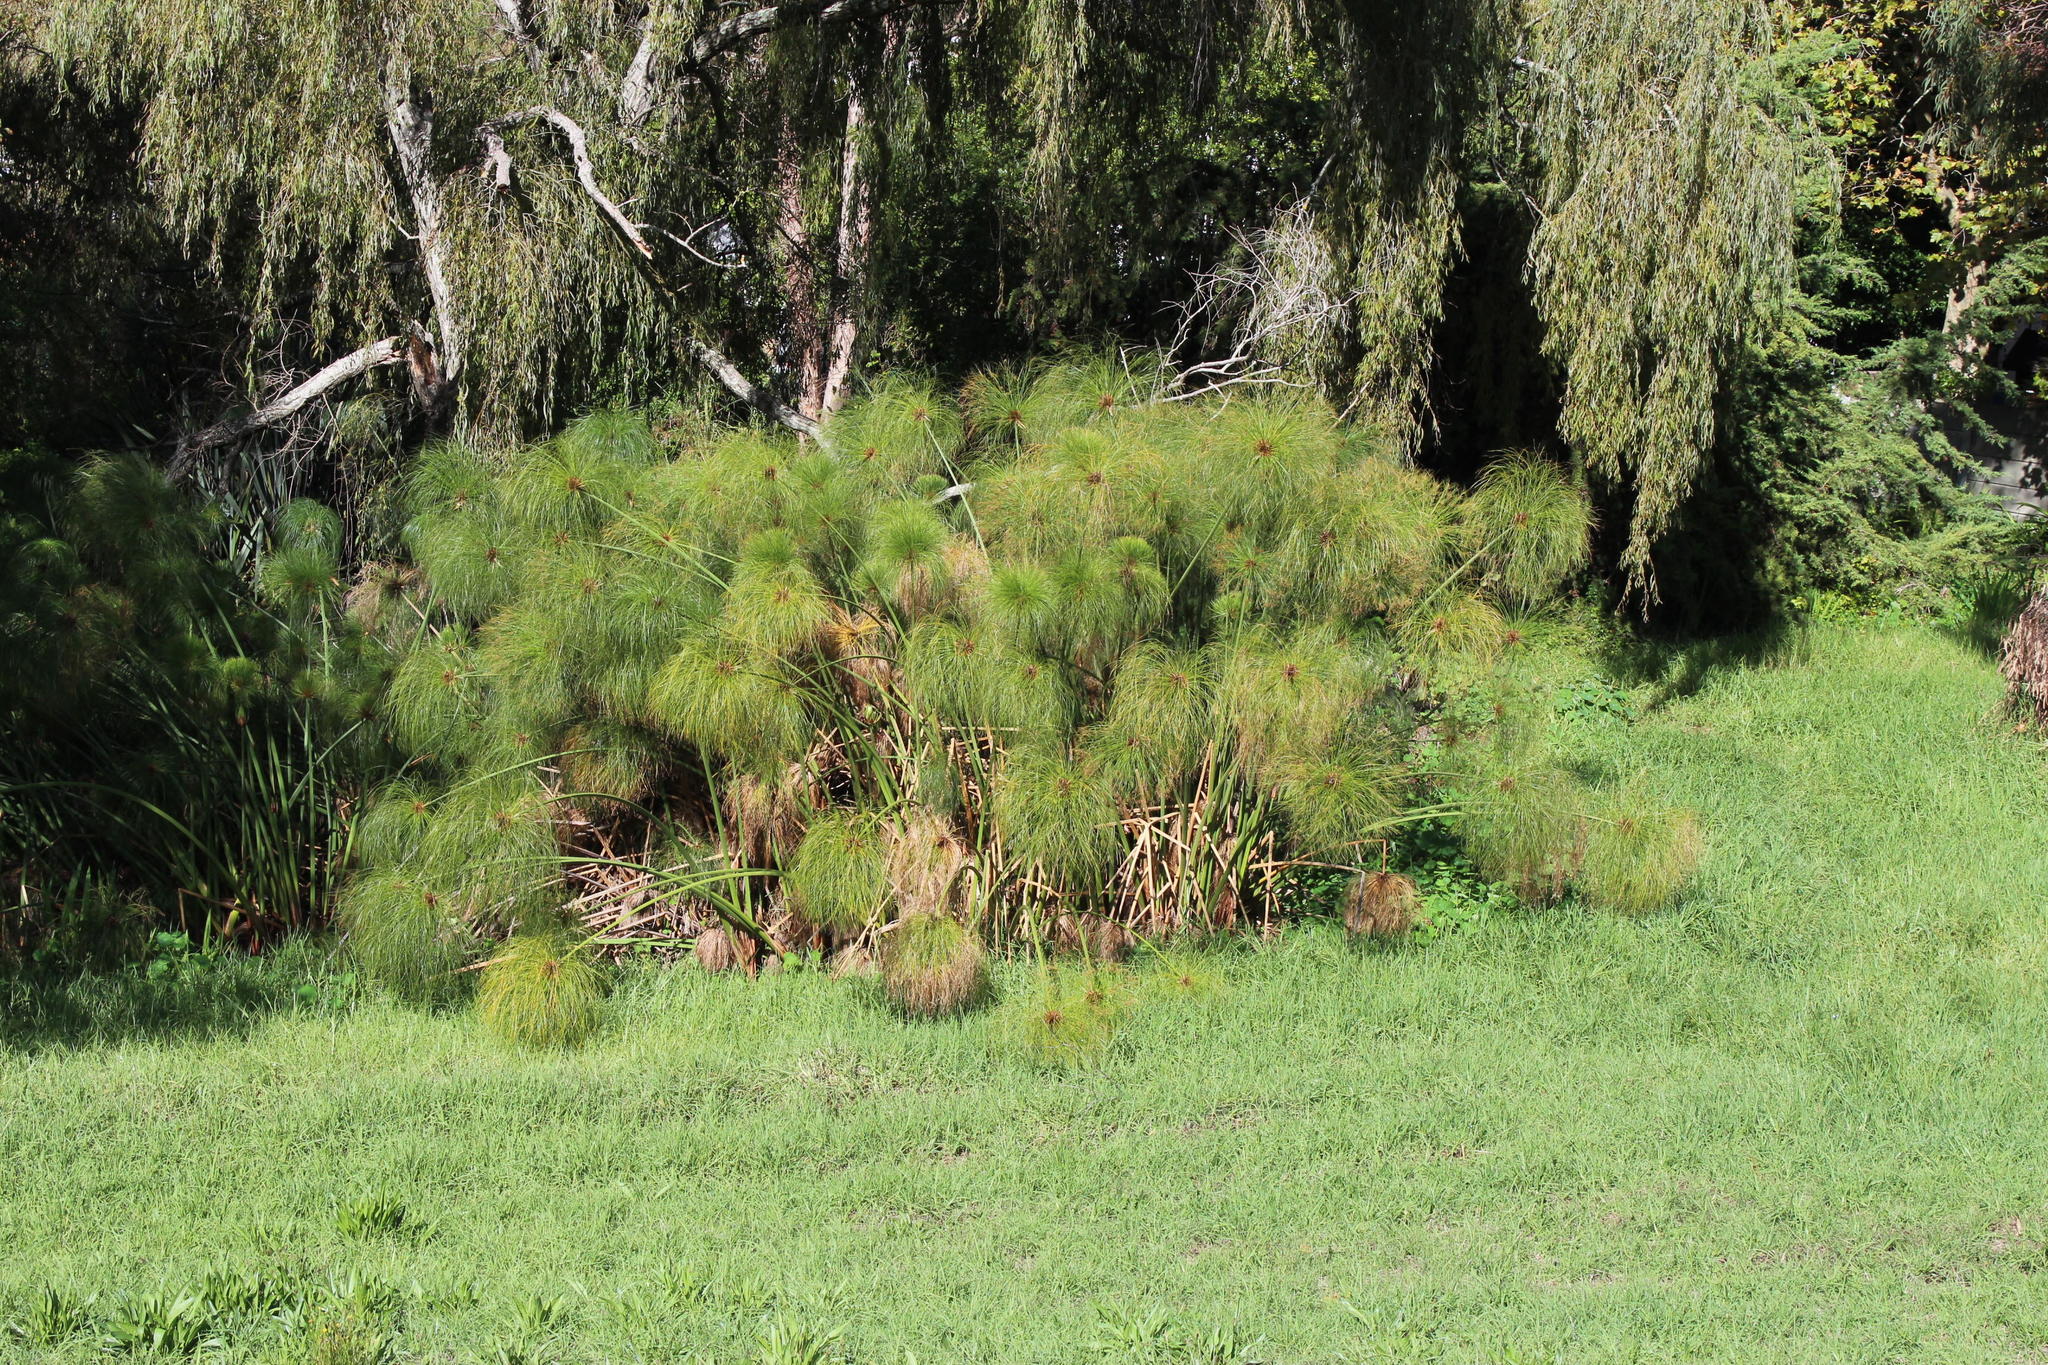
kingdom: Plantae
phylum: Tracheophyta
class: Liliopsida
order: Poales
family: Cyperaceae
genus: Cyperus
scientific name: Cyperus papyrus
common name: Papyrus
